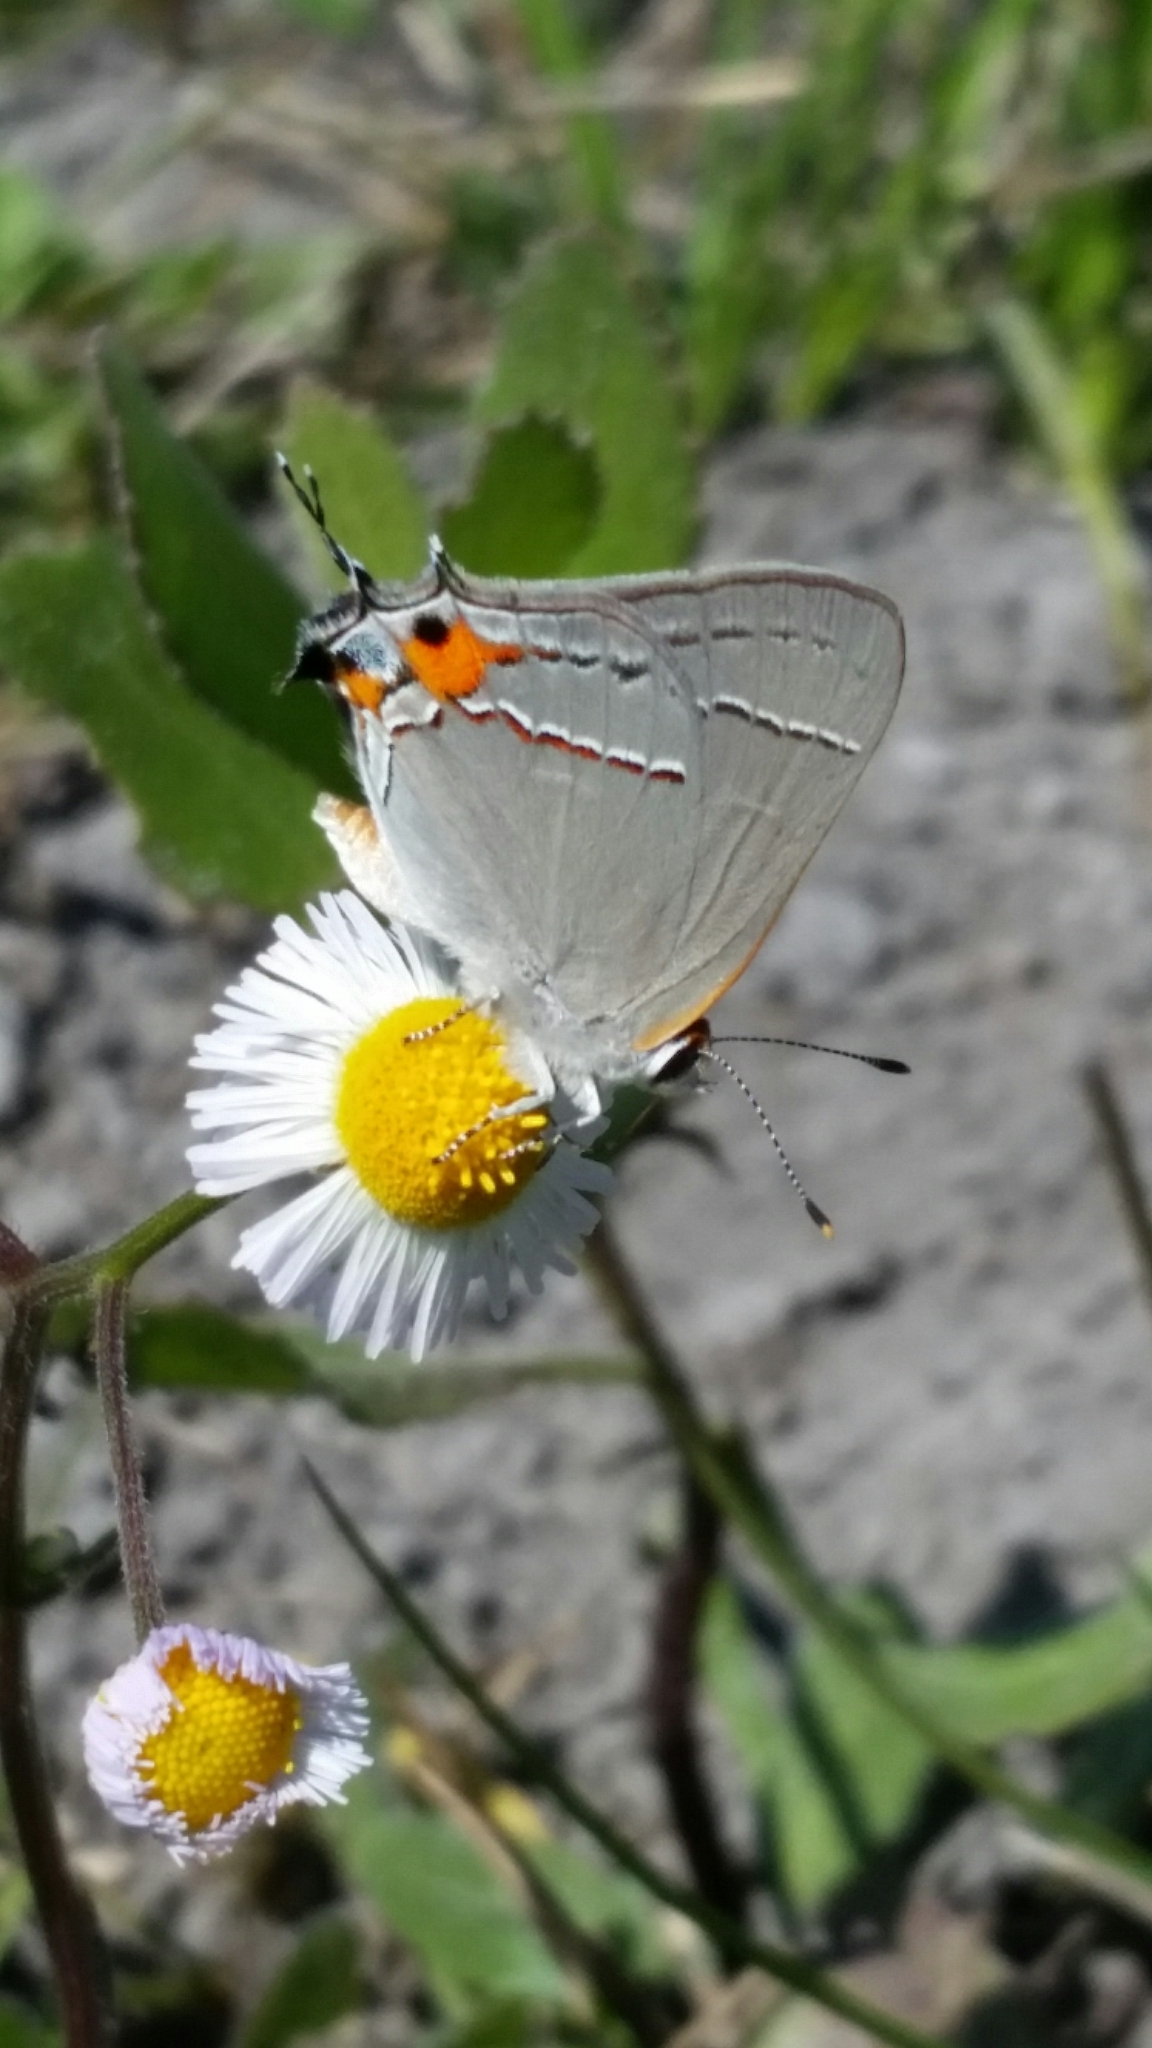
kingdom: Animalia
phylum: Arthropoda
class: Insecta
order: Lepidoptera
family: Lycaenidae
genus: Strymon
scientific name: Strymon melinus
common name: Gray hairstreak
